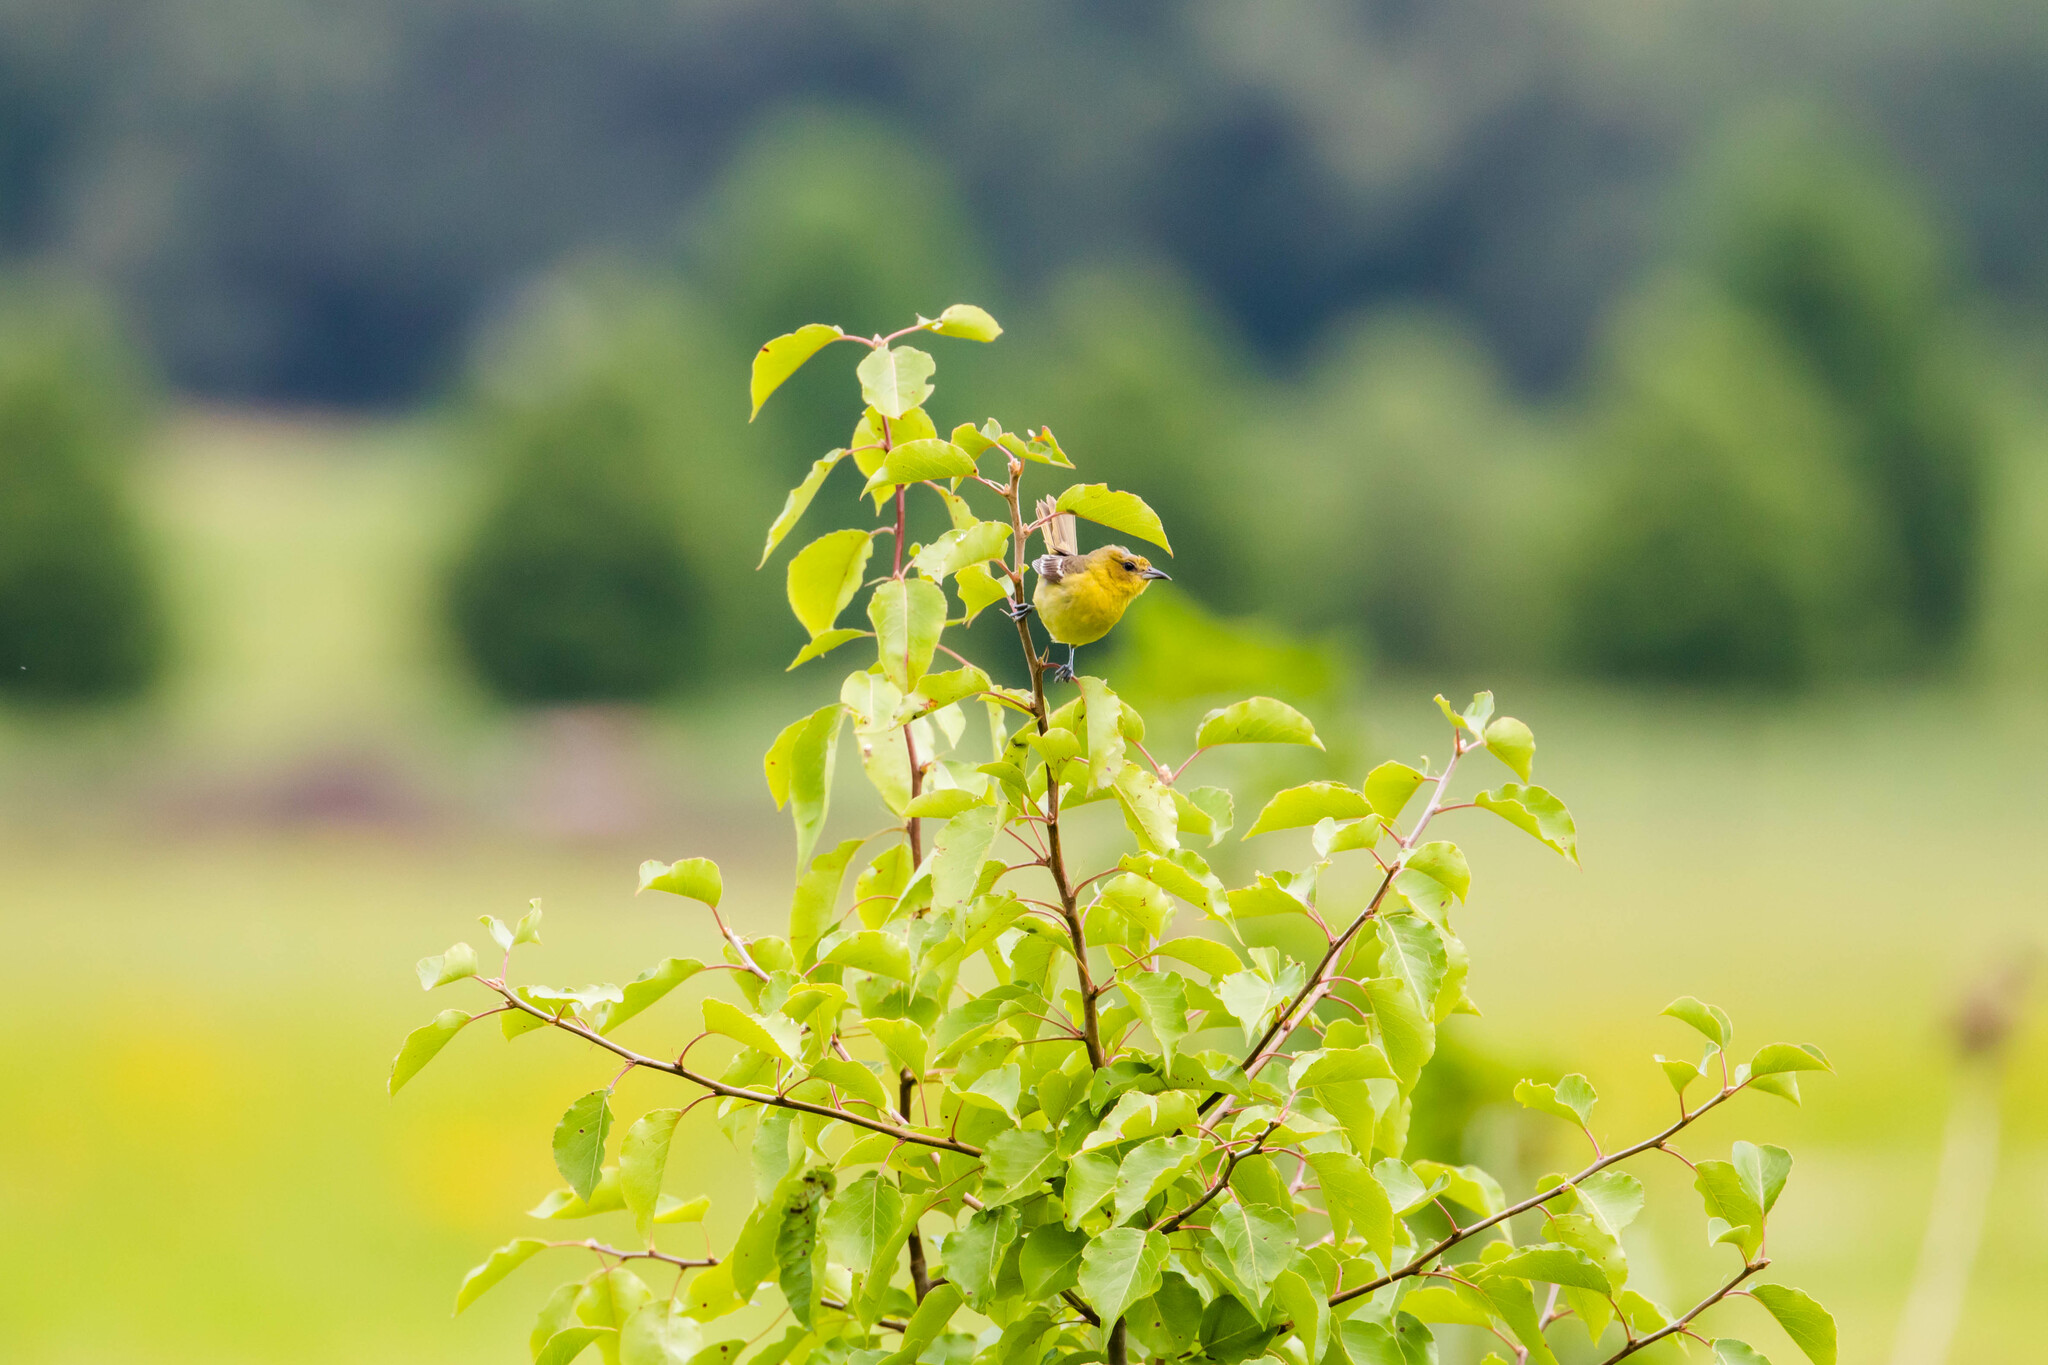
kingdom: Animalia
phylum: Chordata
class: Aves
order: Passeriformes
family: Icteridae
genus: Icterus
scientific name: Icterus spurius
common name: Orchard oriole
